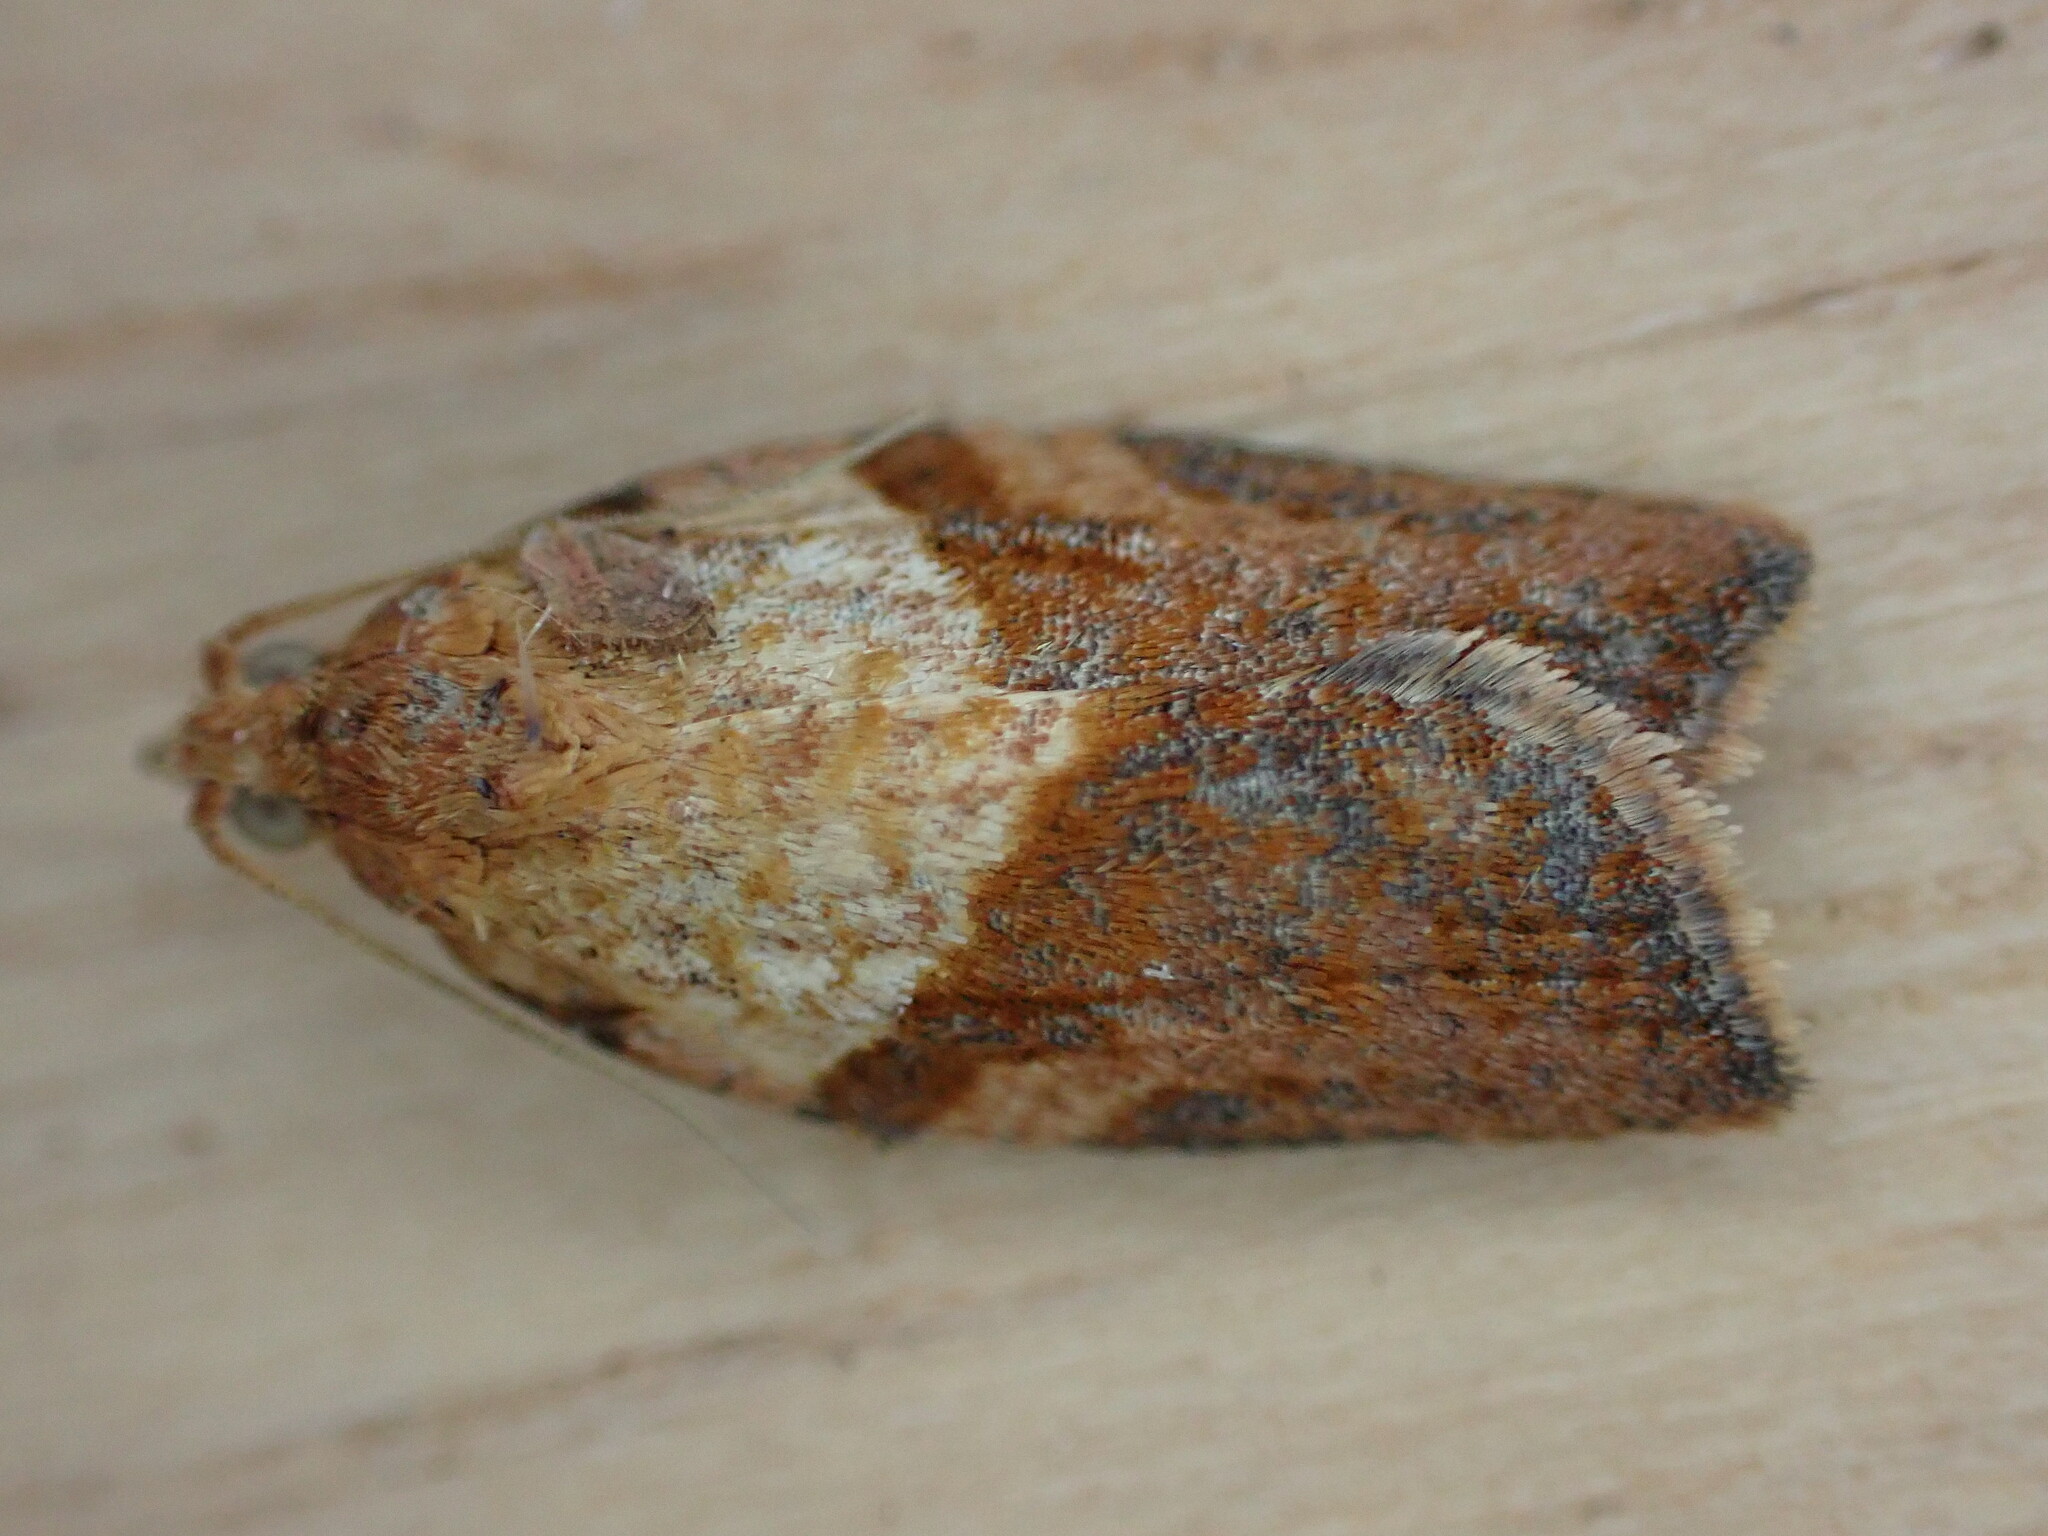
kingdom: Animalia
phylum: Arthropoda
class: Insecta
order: Lepidoptera
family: Tortricidae
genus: Epiphyas
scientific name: Epiphyas postvittana
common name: Light brown apple moth
